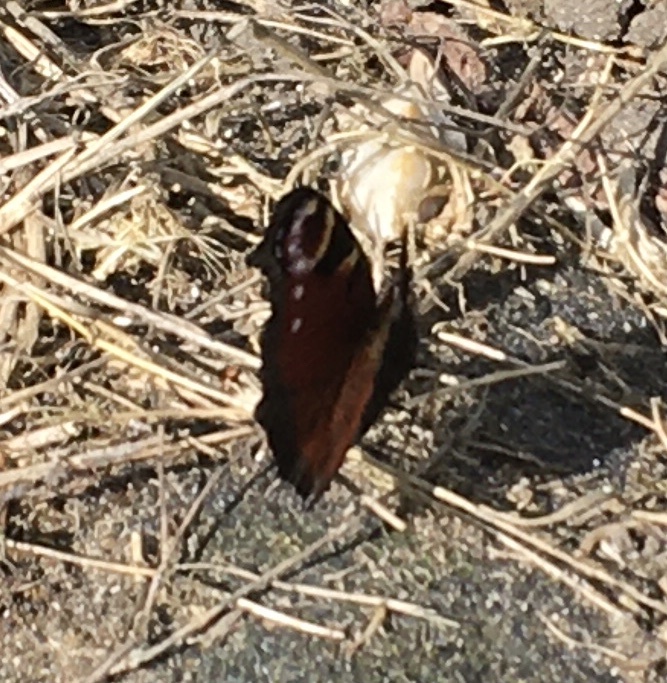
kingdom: Animalia
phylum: Arthropoda
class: Insecta
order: Lepidoptera
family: Nymphalidae
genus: Aglais
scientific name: Aglais io
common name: Peacock
